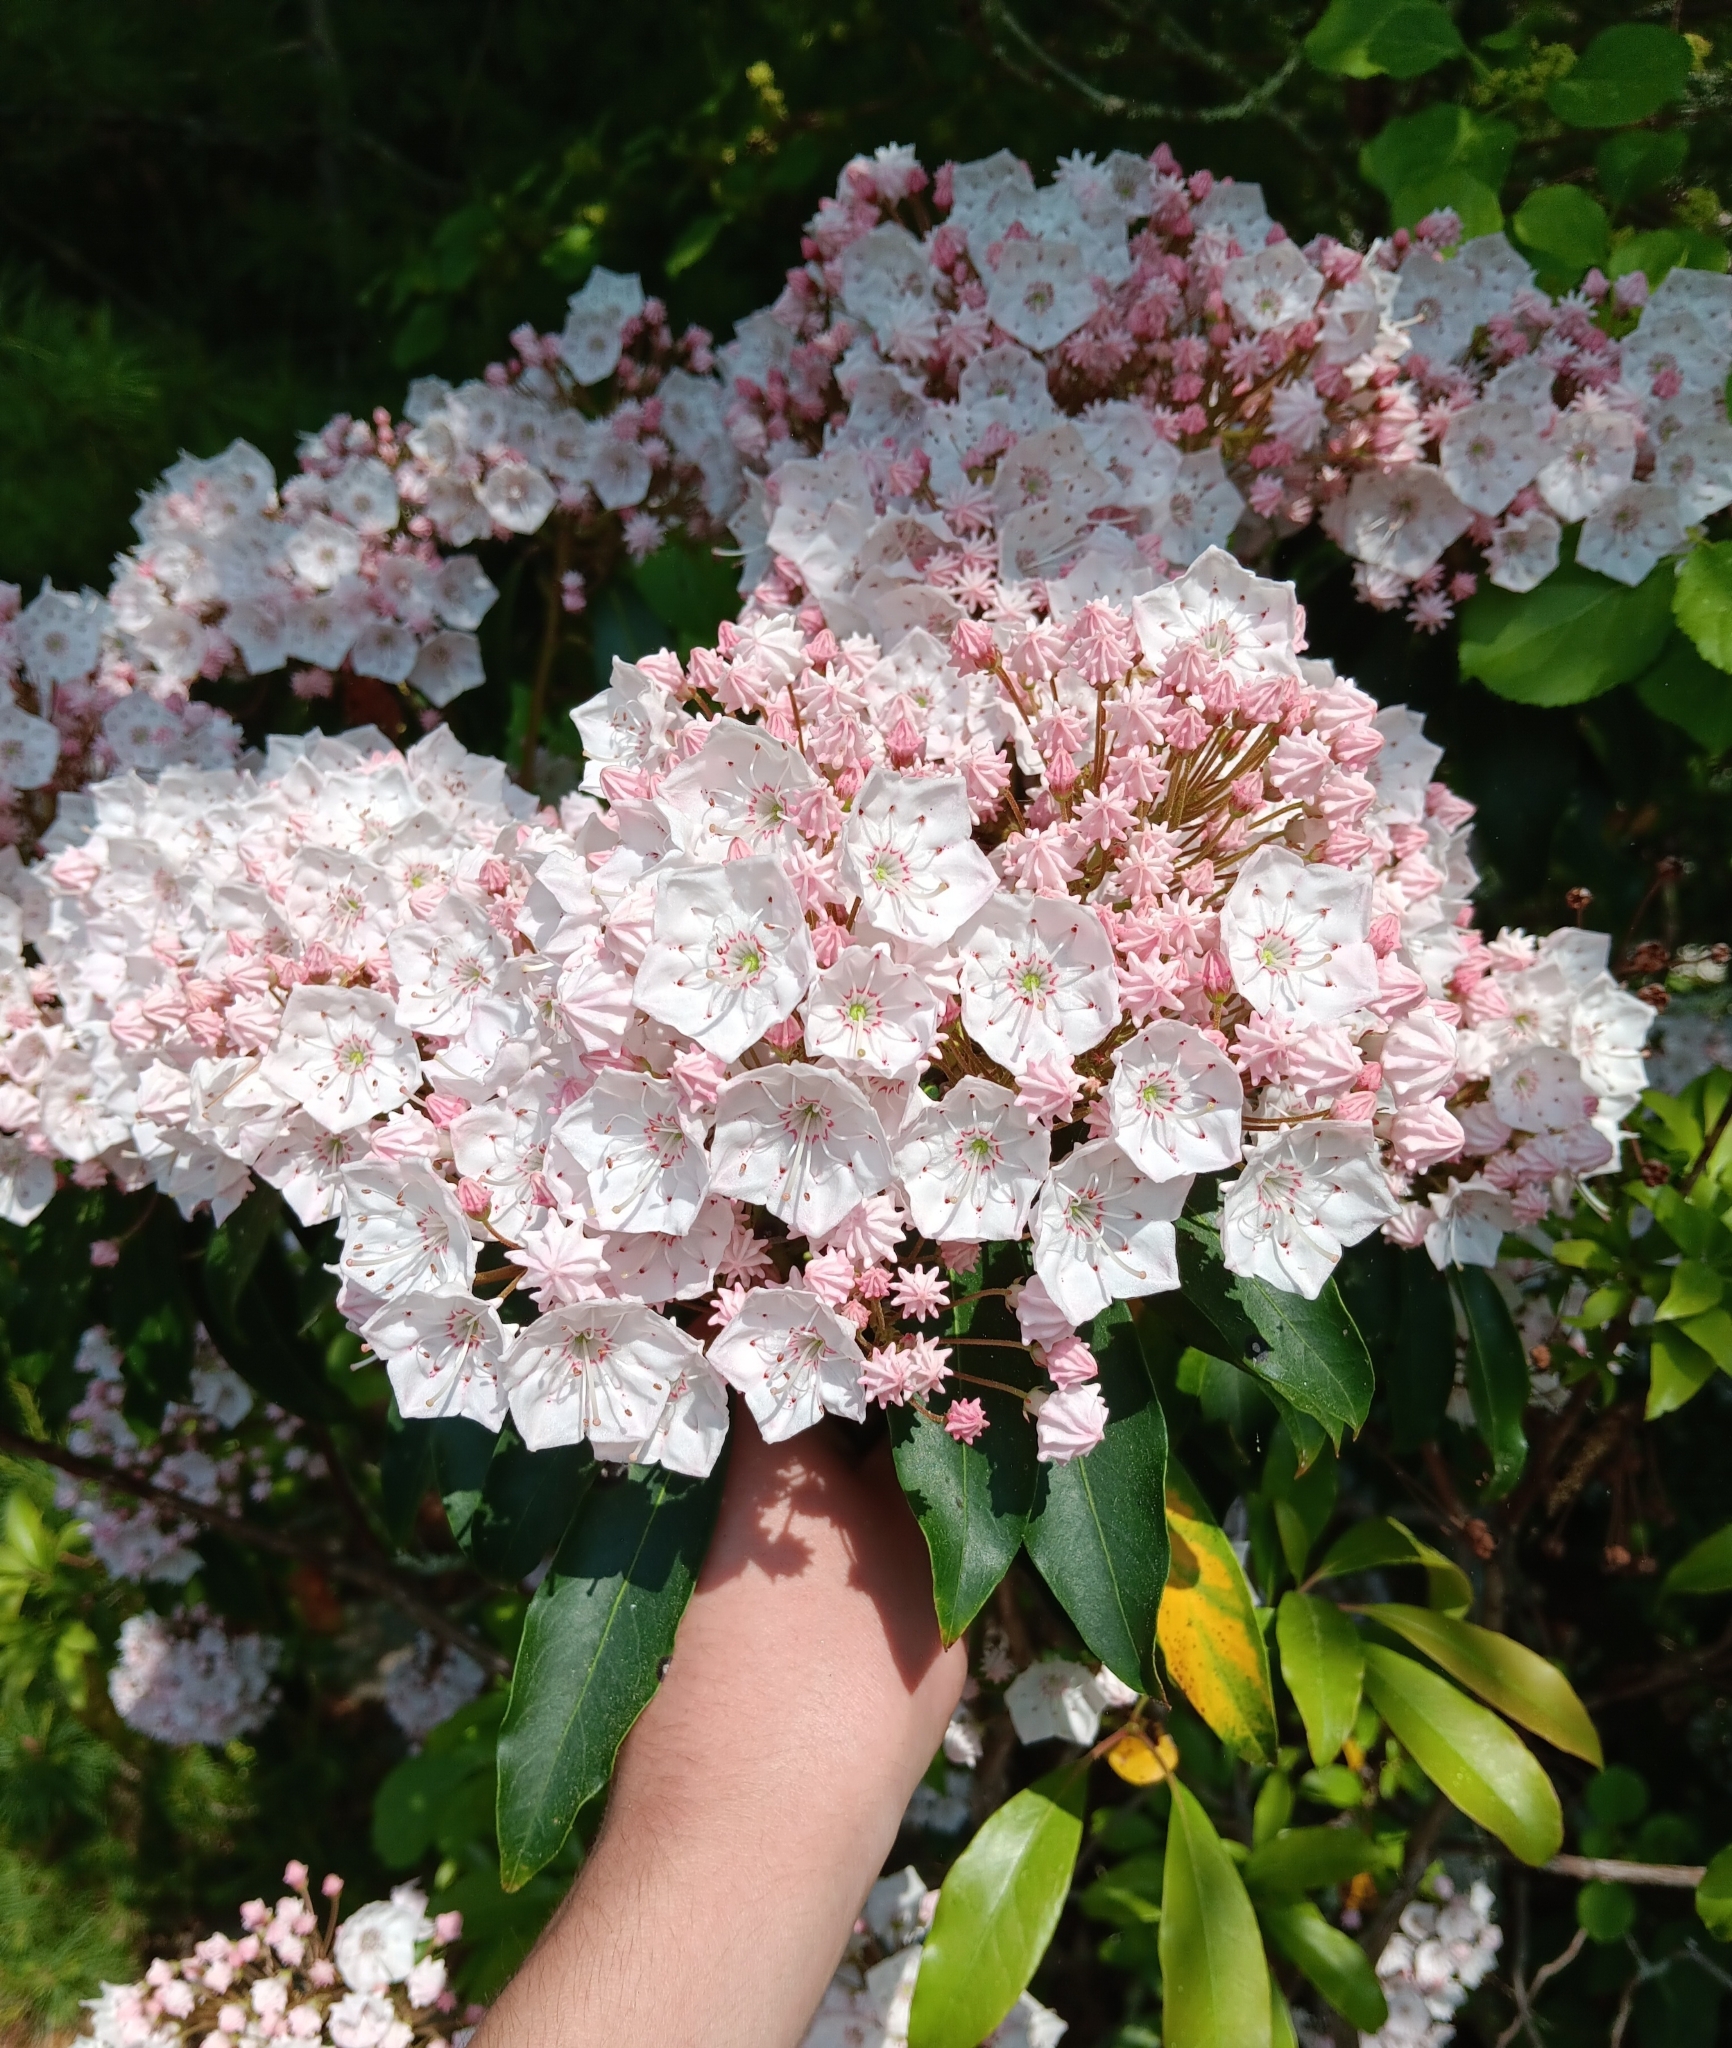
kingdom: Plantae
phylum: Tracheophyta
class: Magnoliopsida
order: Ericales
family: Ericaceae
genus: Kalmia
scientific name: Kalmia latifolia
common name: Mountain-laurel
